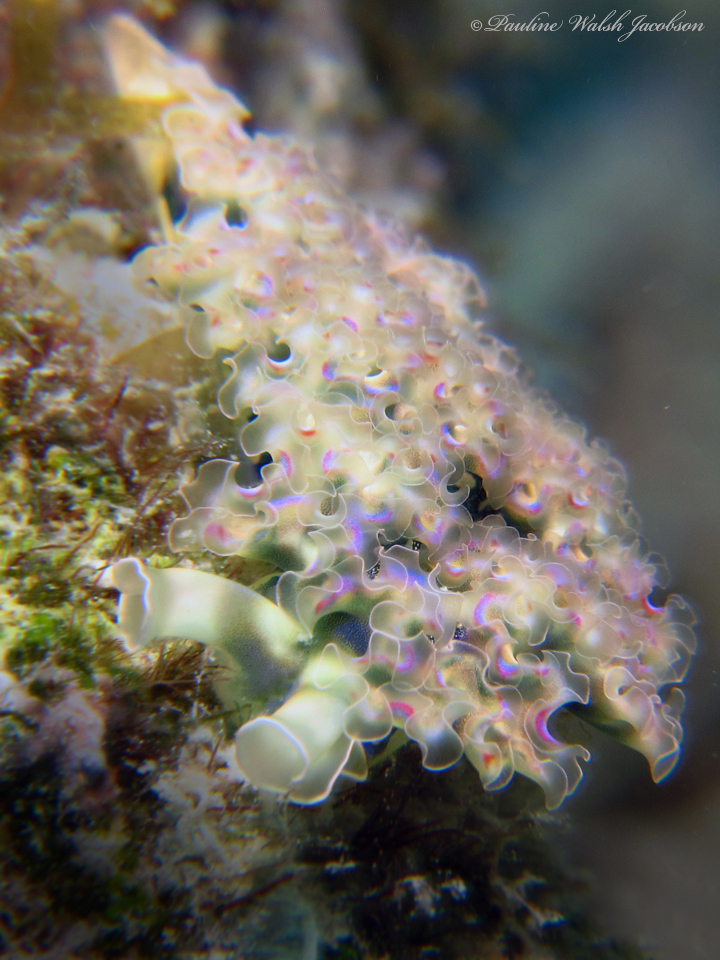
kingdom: Animalia
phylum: Mollusca
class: Gastropoda
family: Plakobranchidae
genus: Elysia
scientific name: Elysia crispata
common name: Lettuce slug
